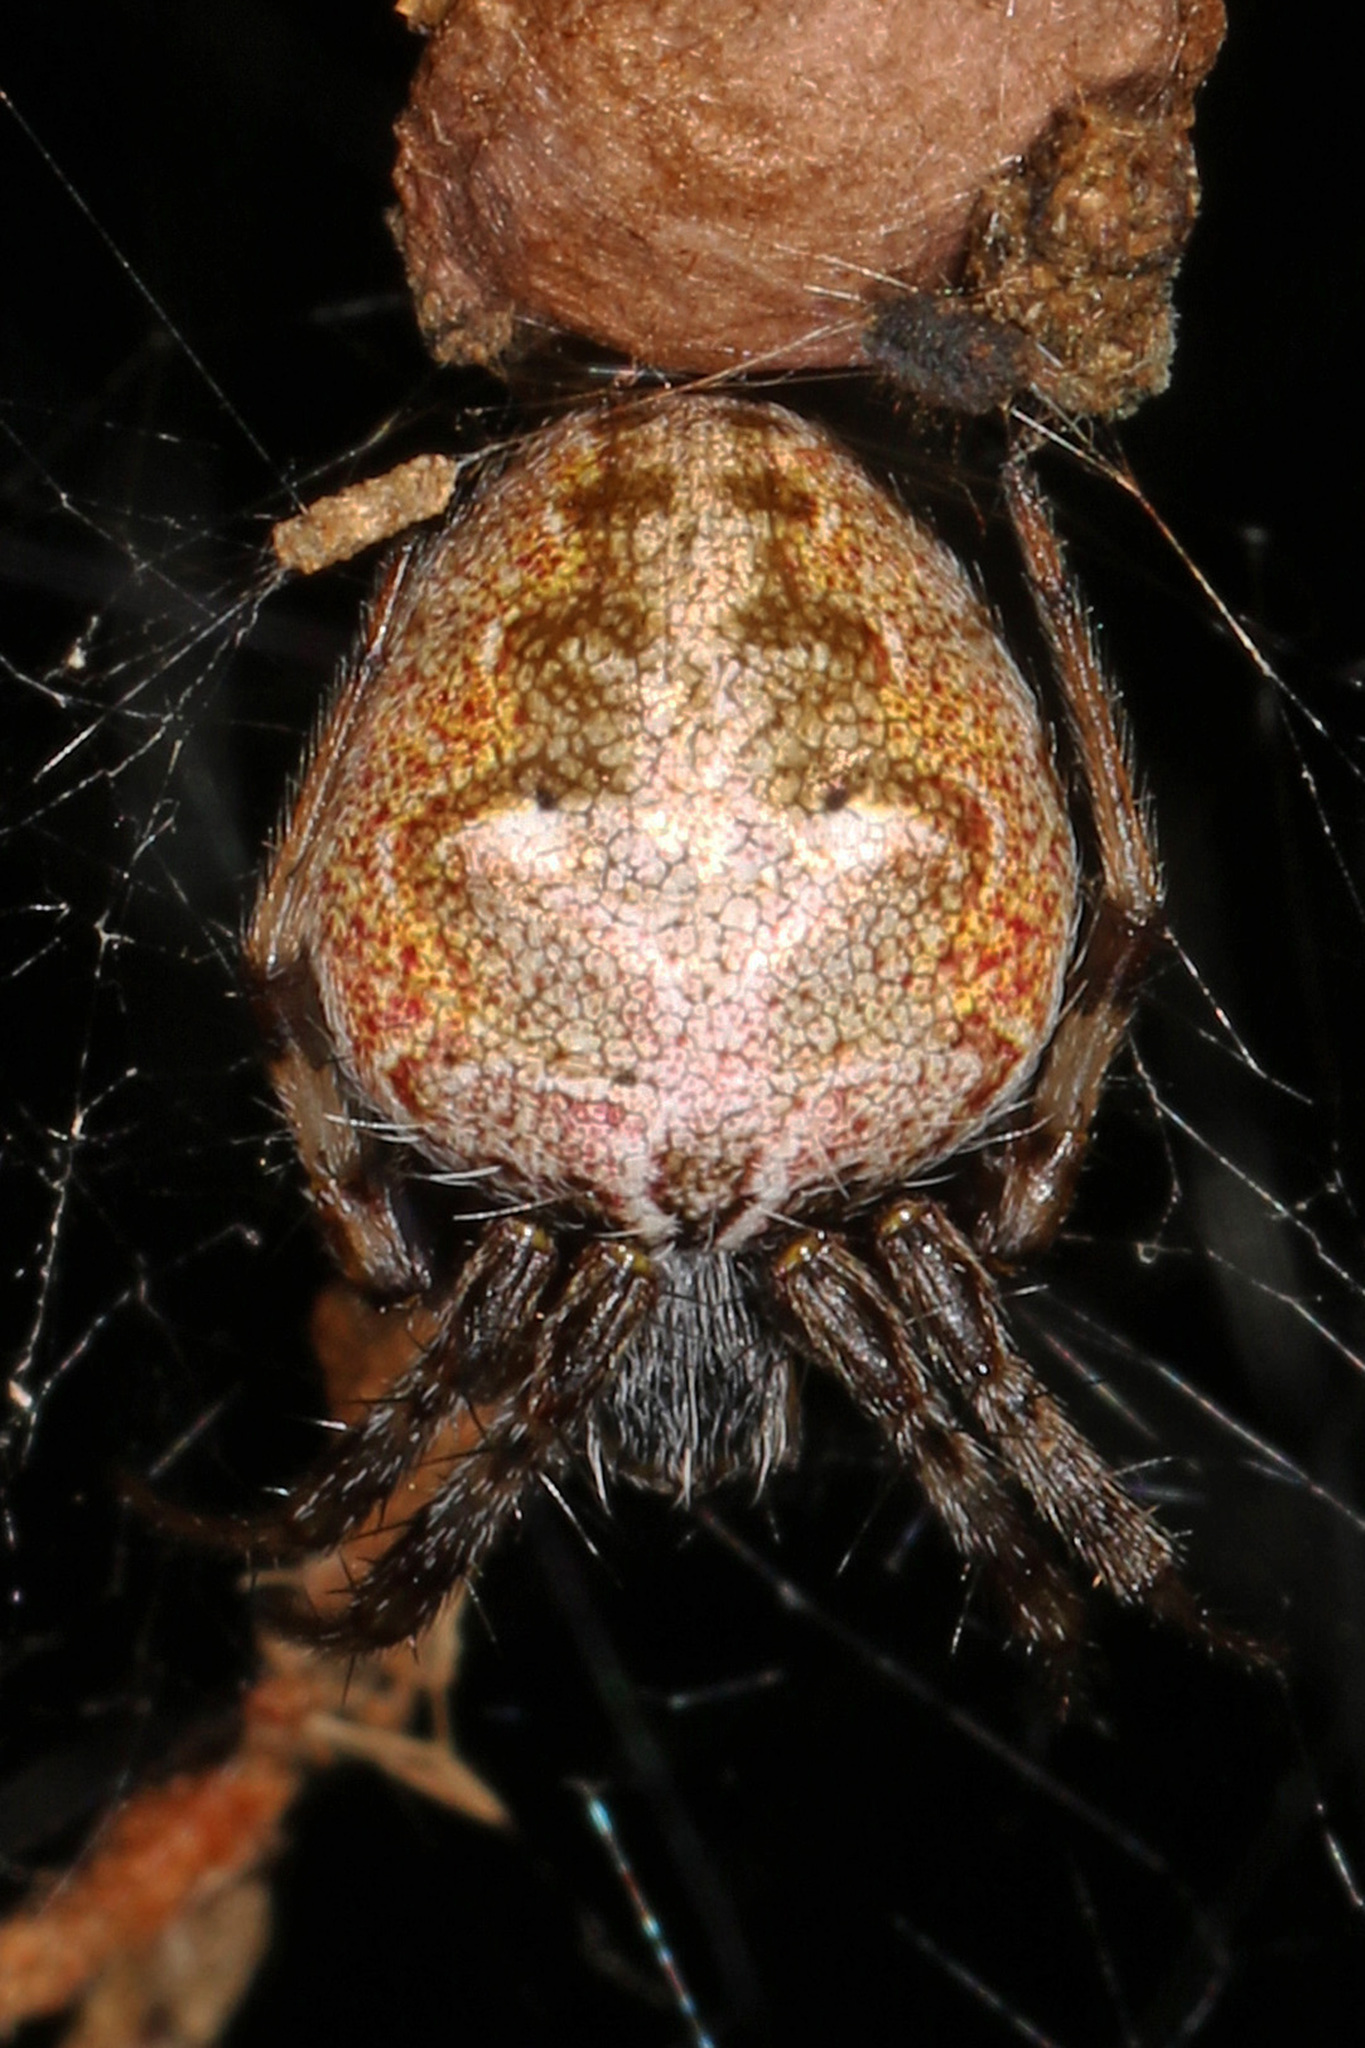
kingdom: Animalia
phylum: Arthropoda
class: Arachnida
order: Araneae
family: Araneidae
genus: Metepeira
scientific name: Metepeira labyrinthea
